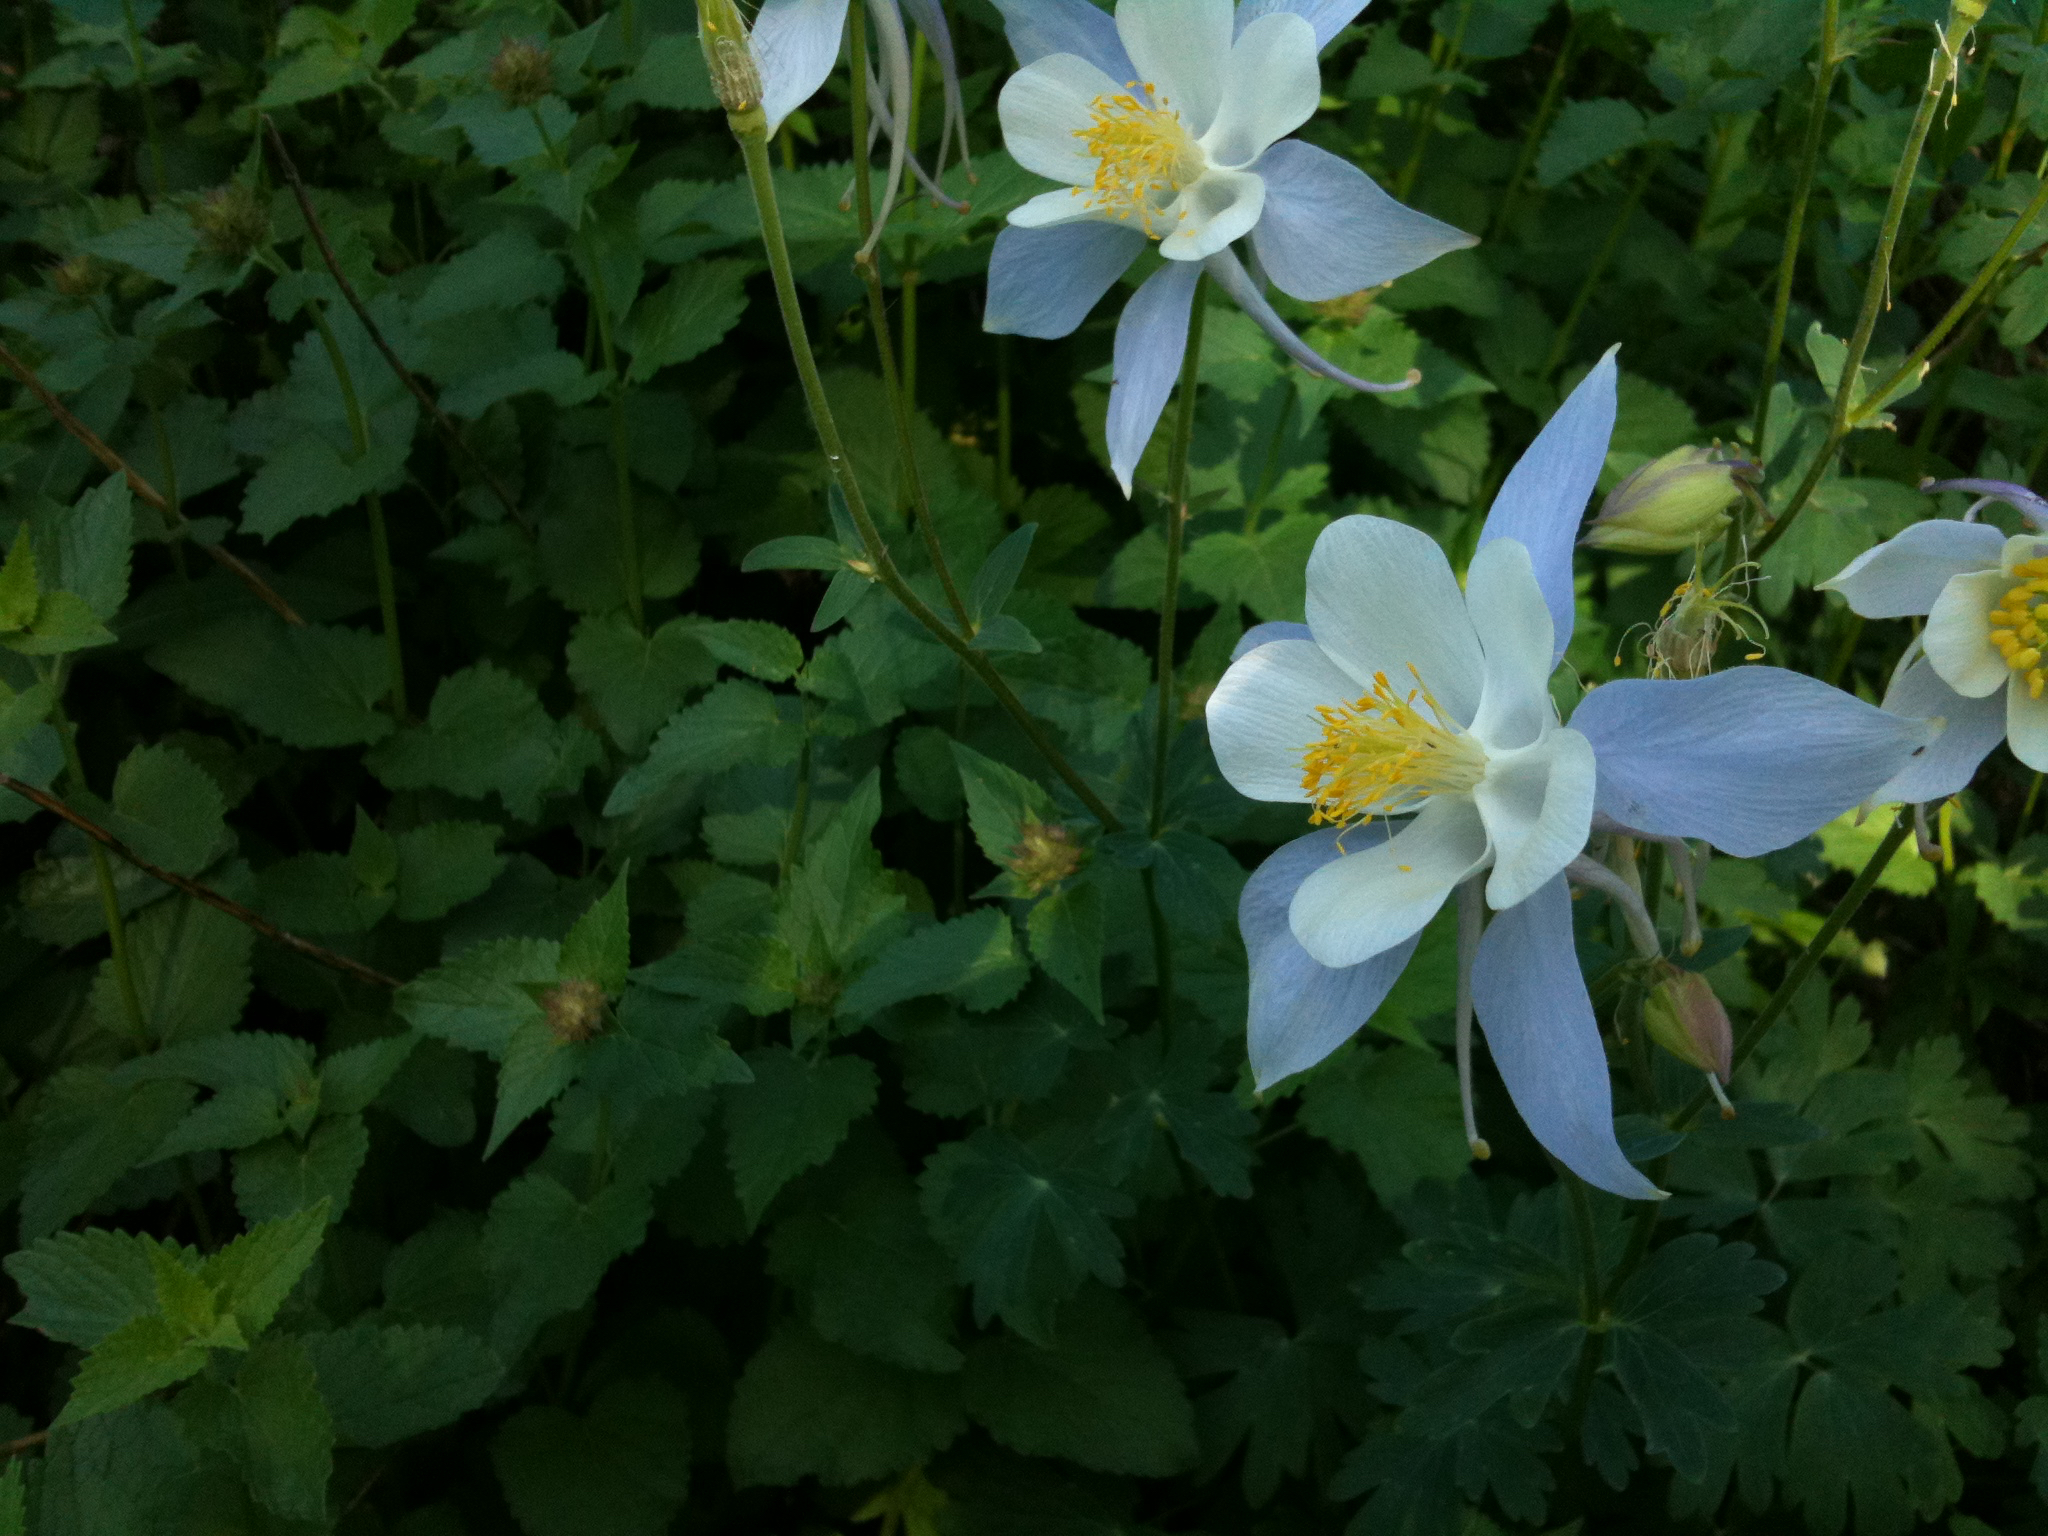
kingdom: Plantae
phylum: Tracheophyta
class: Magnoliopsida
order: Ranunculales
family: Ranunculaceae
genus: Aquilegia
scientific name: Aquilegia coerulea
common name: Rocky mountain columbine
